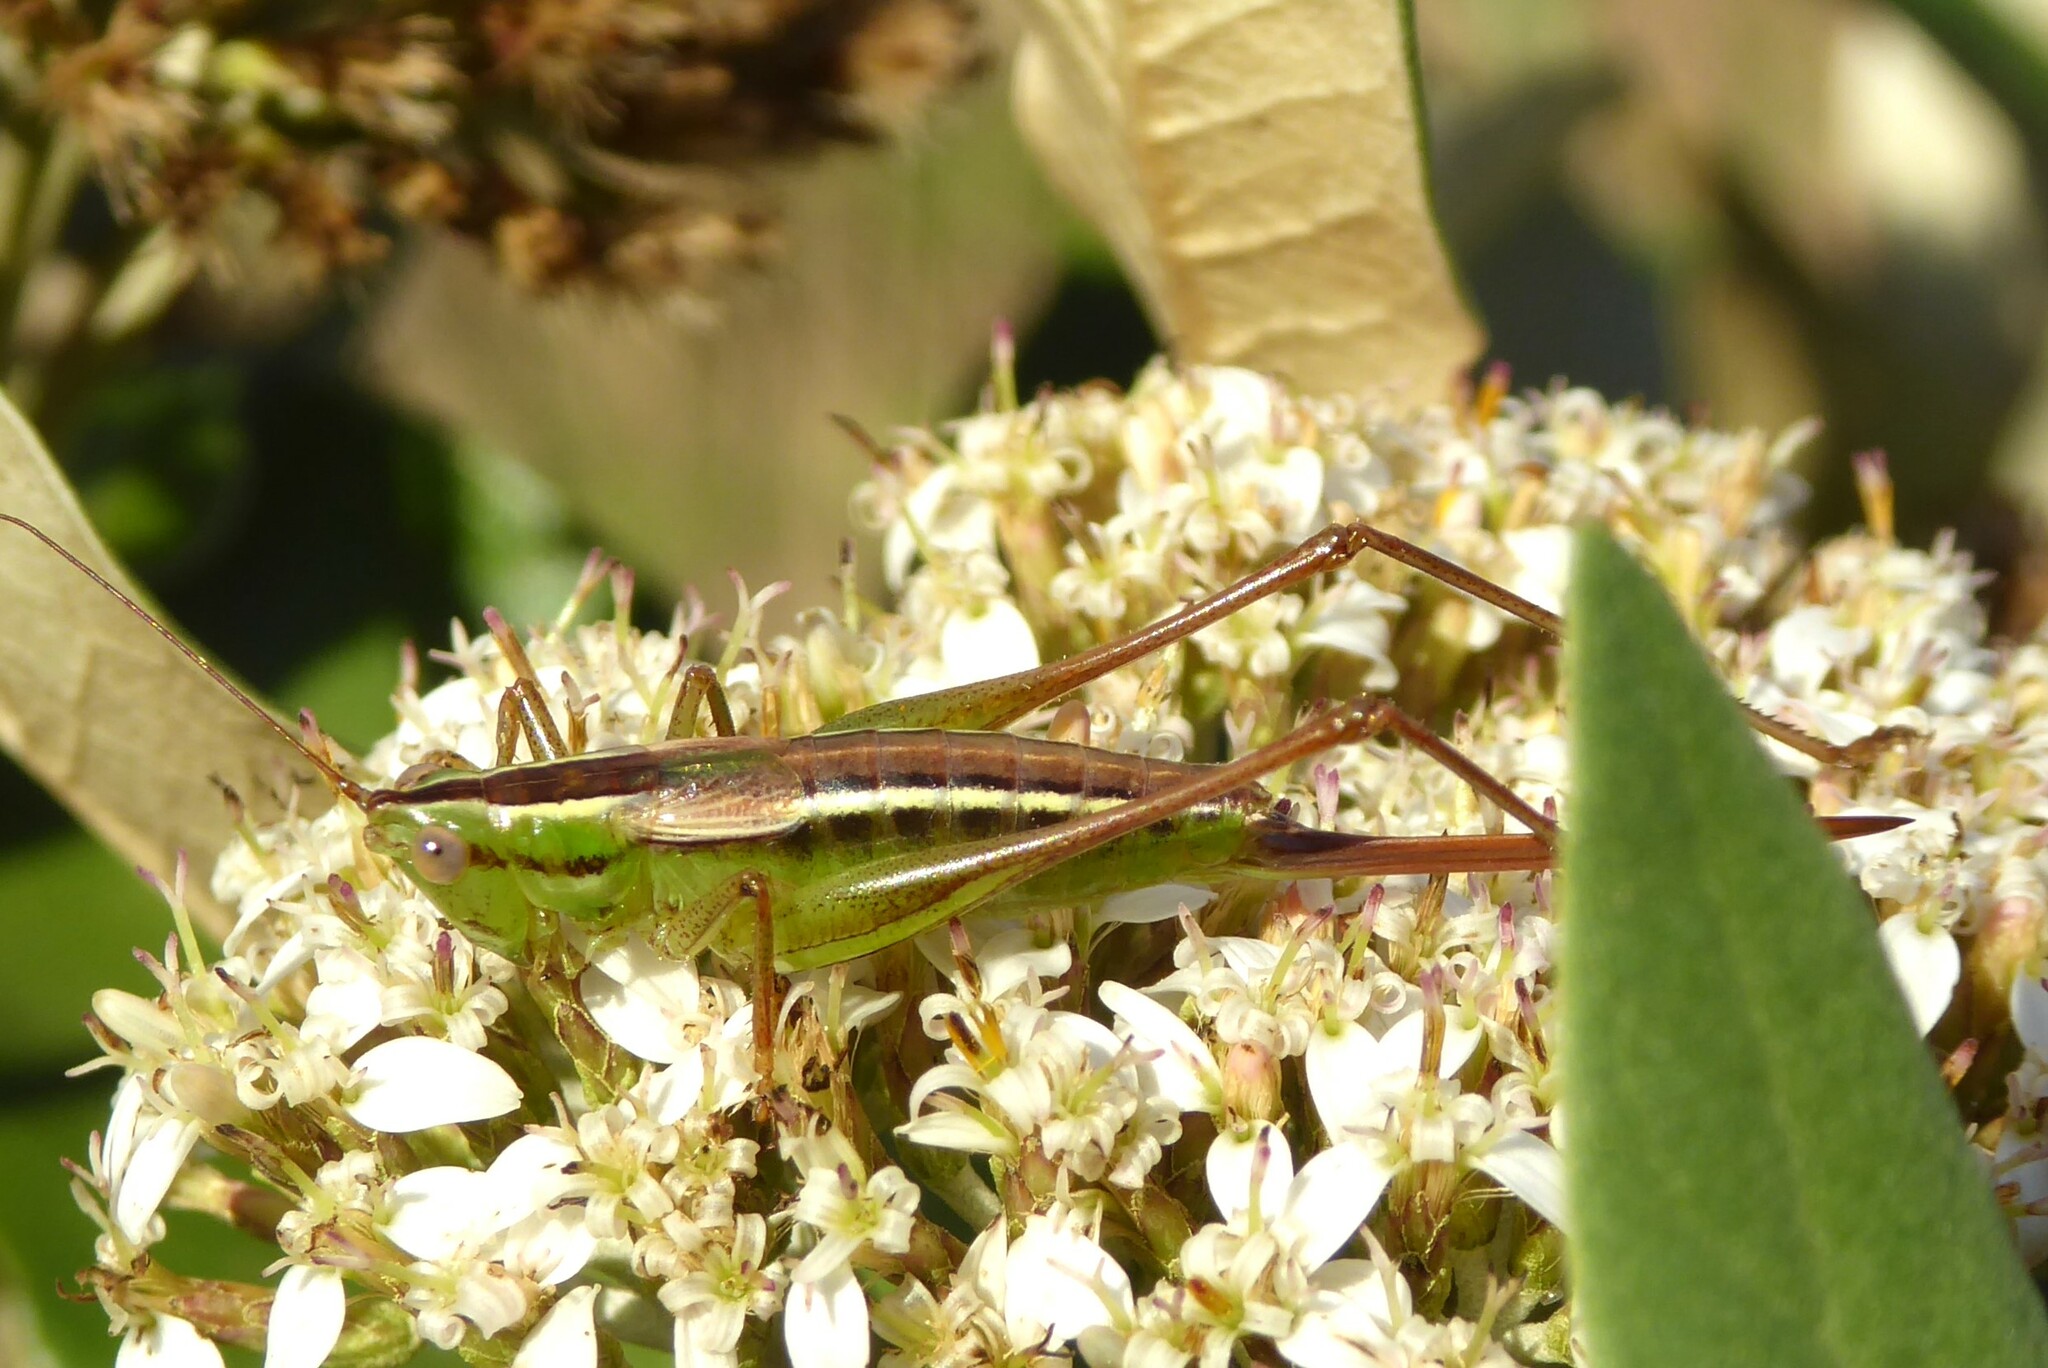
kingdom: Animalia
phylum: Arthropoda
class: Insecta
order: Orthoptera
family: Tettigoniidae
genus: Conocephalus
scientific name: Conocephalus bilineatus
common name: Small meadow katydid
